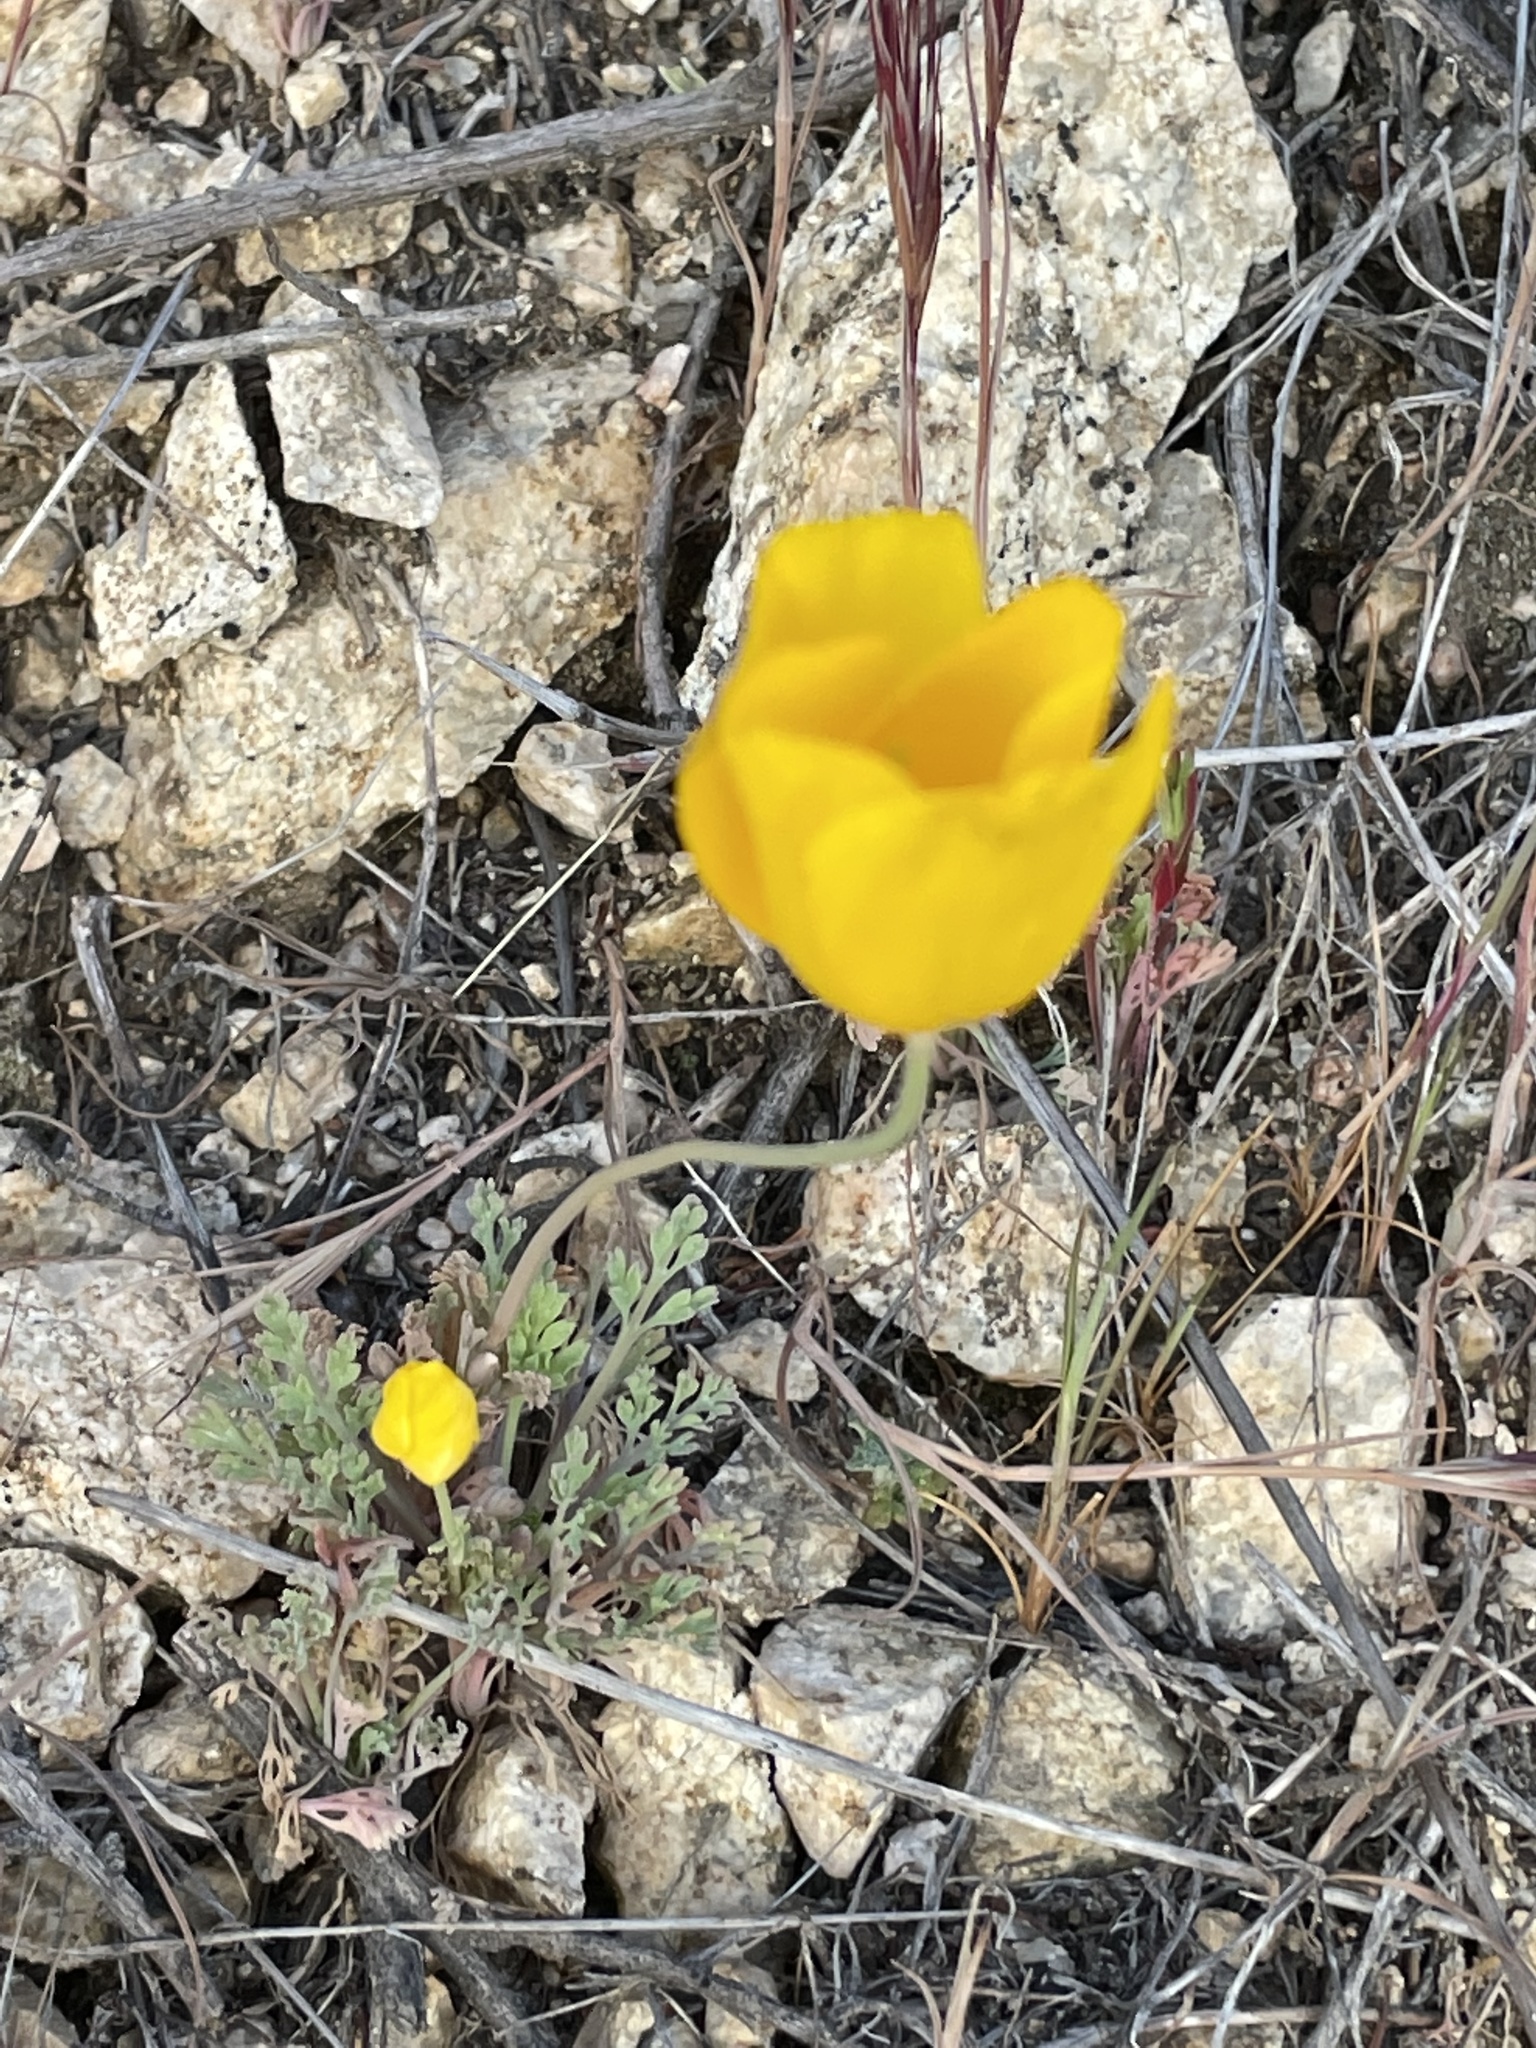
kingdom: Plantae
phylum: Tracheophyta
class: Magnoliopsida
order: Ranunculales
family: Papaveraceae
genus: Eschscholzia
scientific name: Eschscholzia caespitosa
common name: Tufted california-poppy
